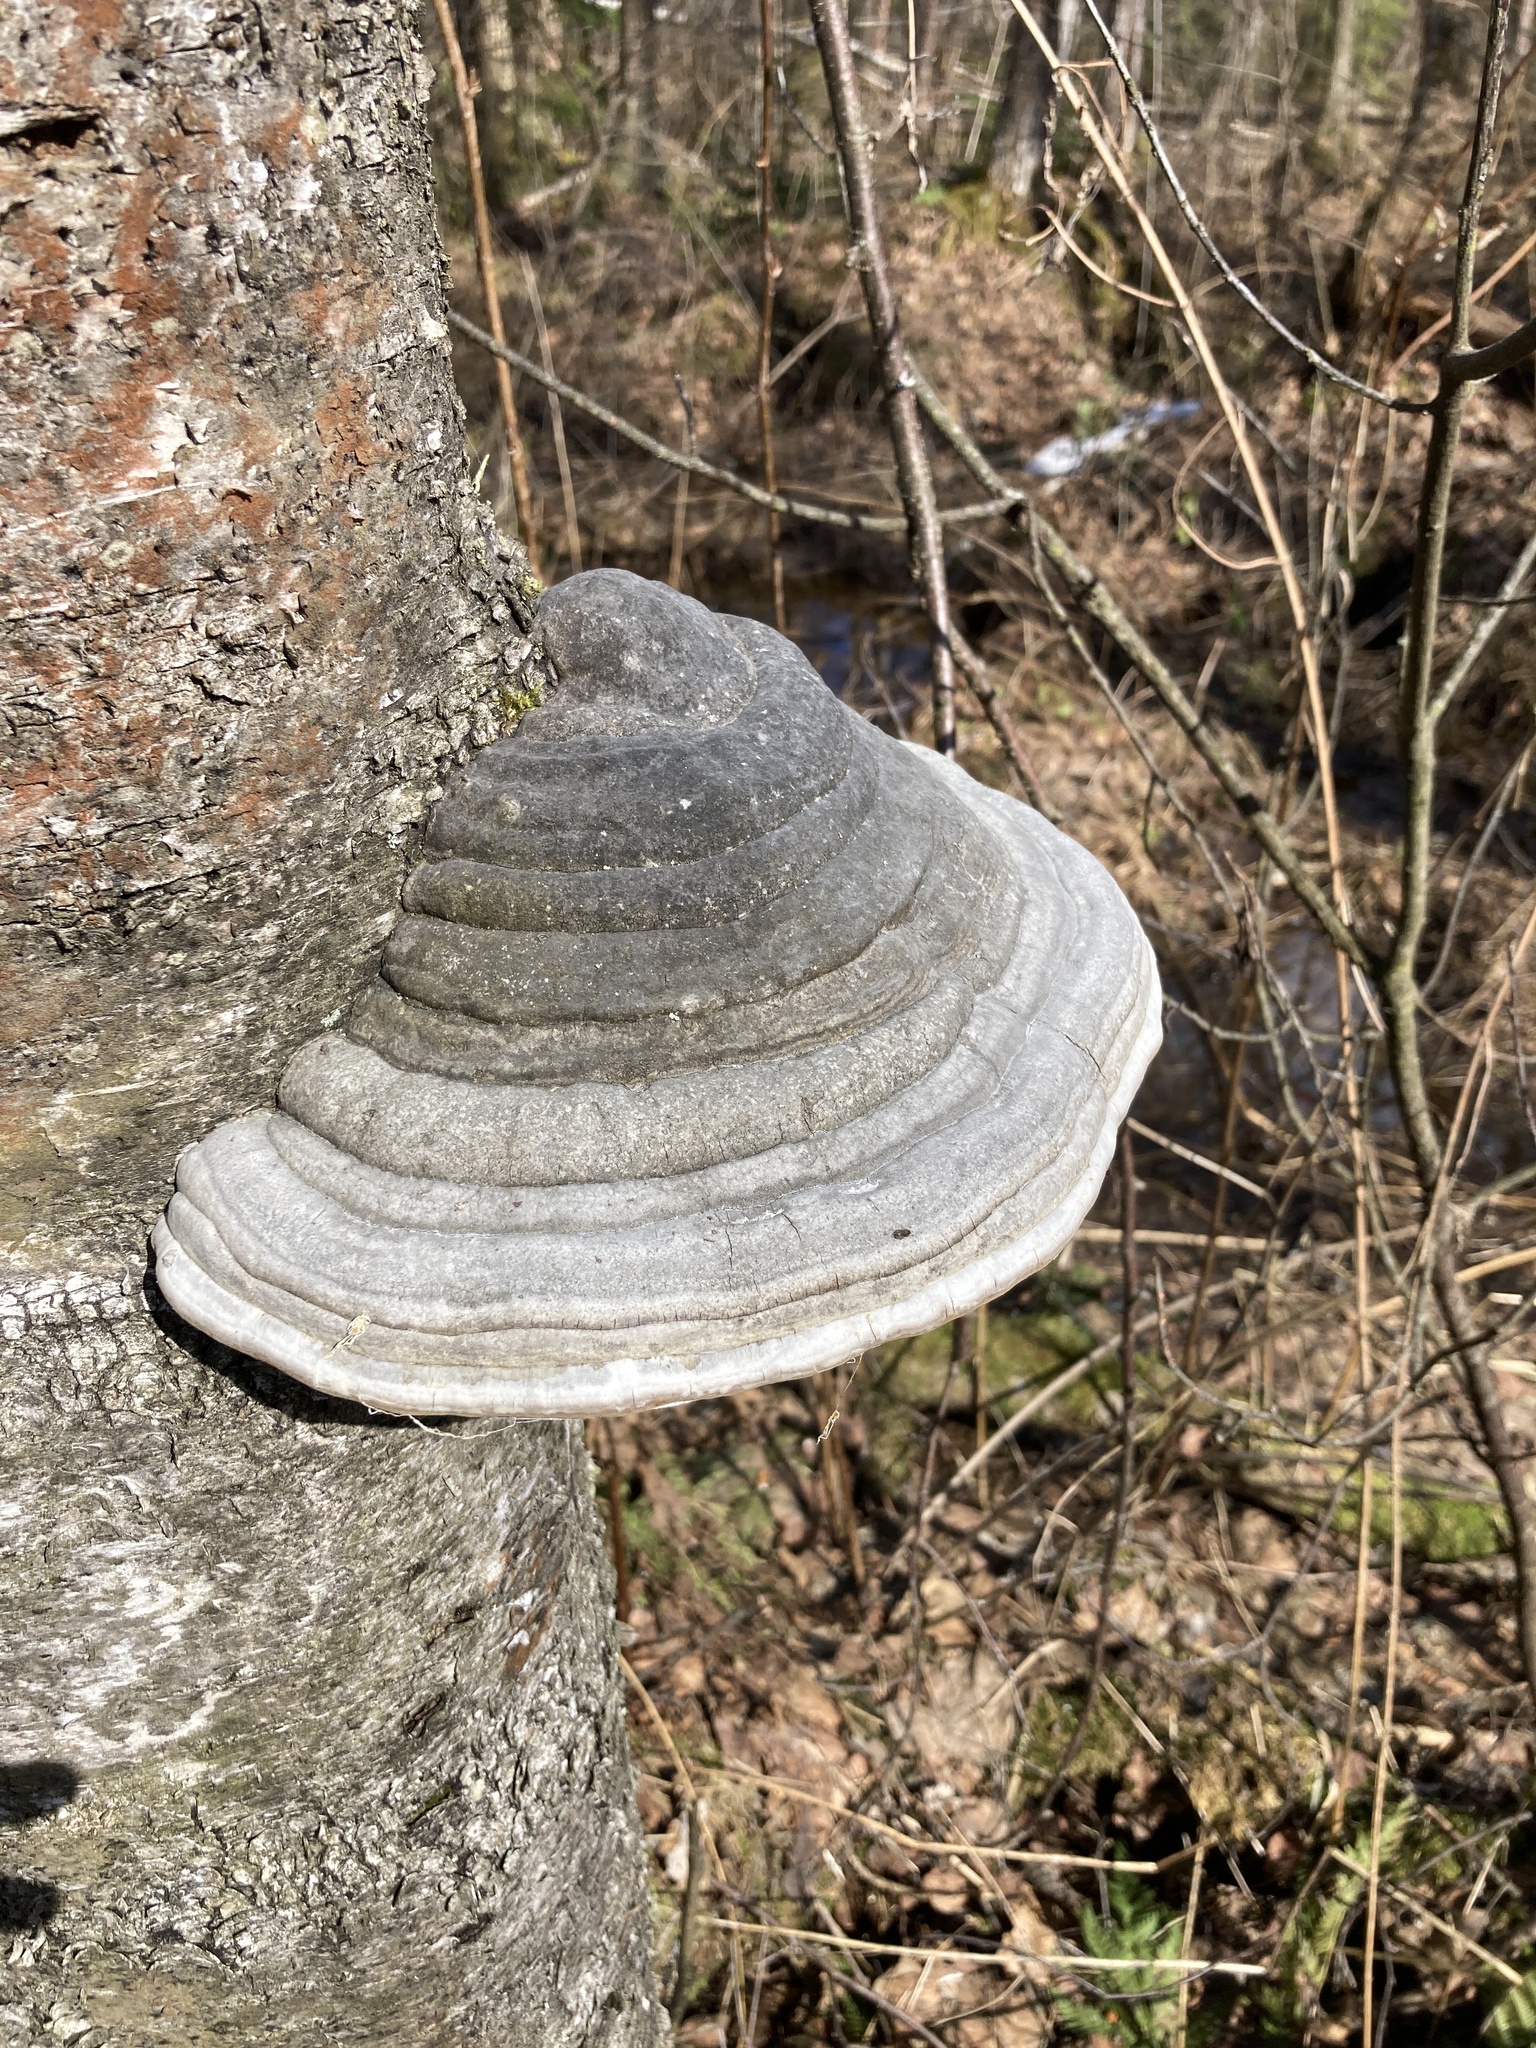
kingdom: Fungi
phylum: Basidiomycota
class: Agaricomycetes
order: Polyporales
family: Polyporaceae
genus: Fomes
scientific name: Fomes fomentarius
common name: Hoof fungus
